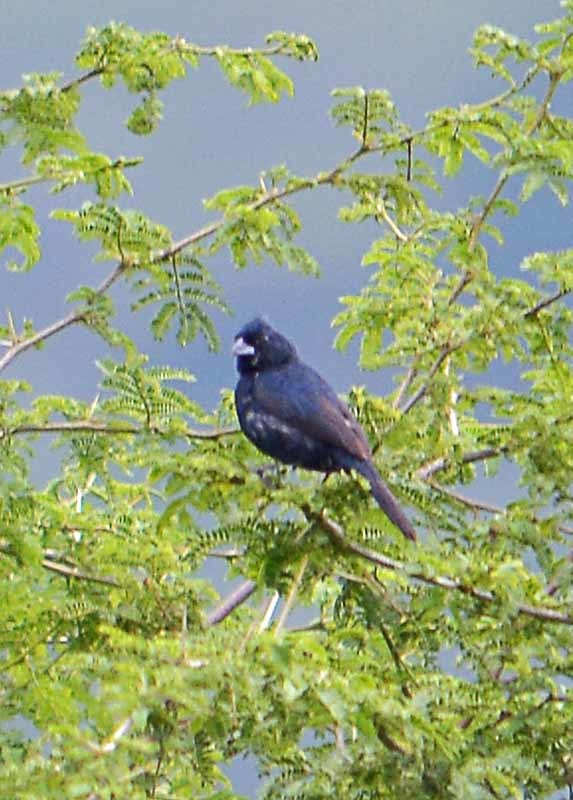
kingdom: Animalia
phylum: Chordata
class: Aves
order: Passeriformes
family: Thraupidae
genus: Volatinia
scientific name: Volatinia jacarina
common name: Blue-black grassquit
